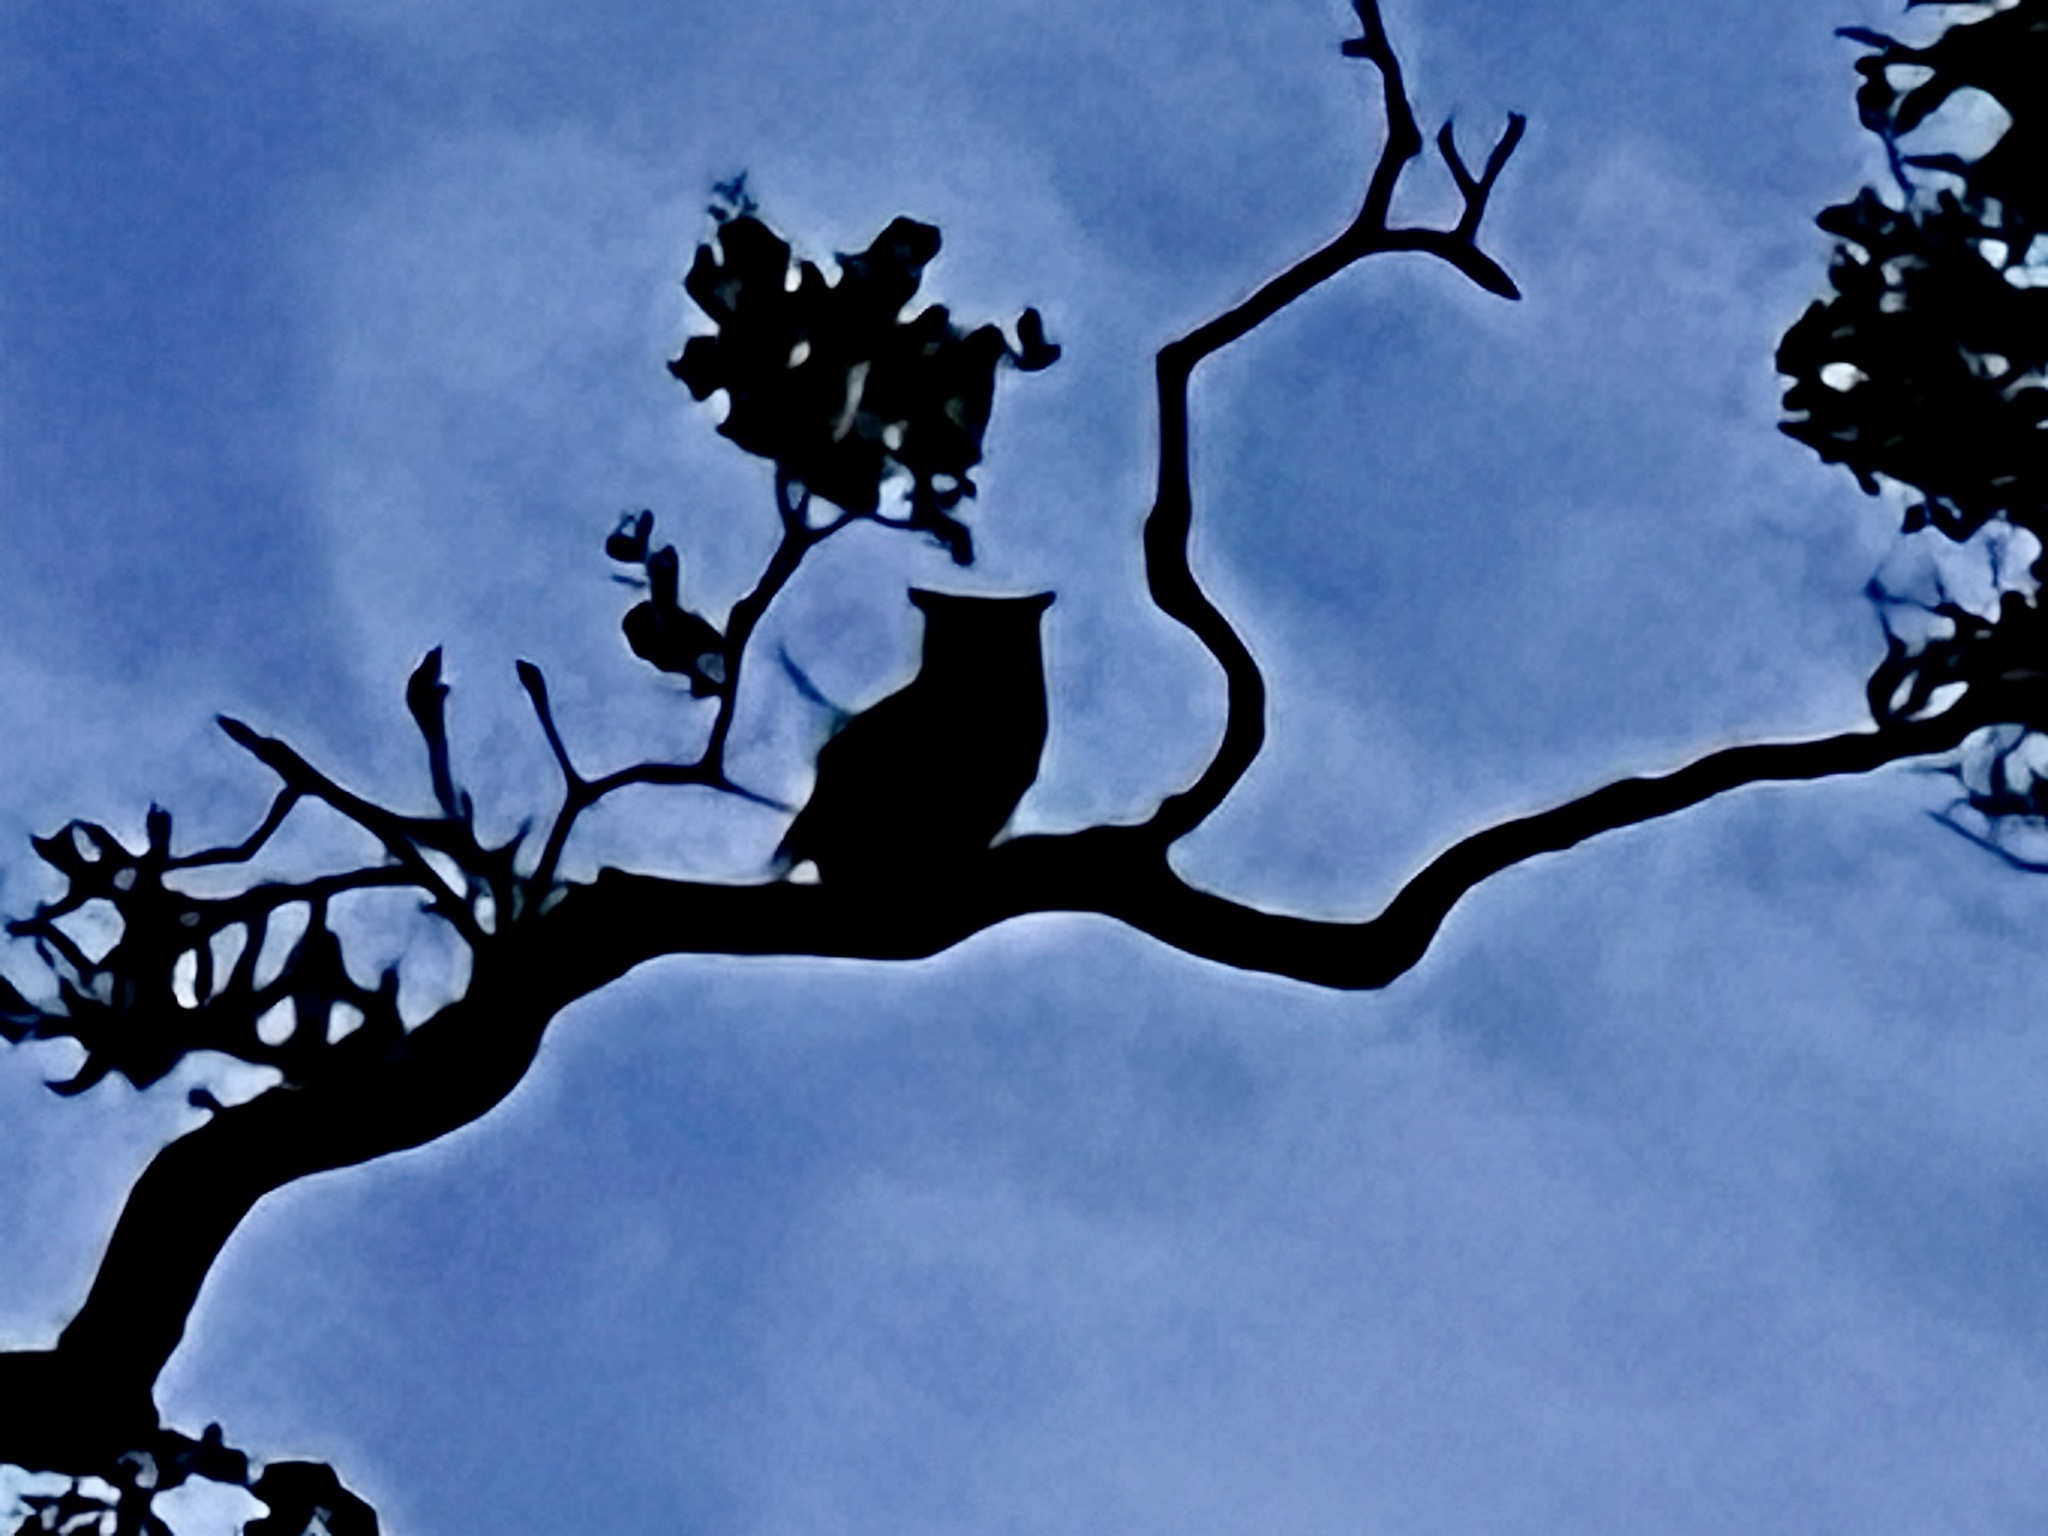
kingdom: Animalia
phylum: Chordata
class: Aves
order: Strigiformes
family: Strigidae
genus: Bubo
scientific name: Bubo virginianus
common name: Great horned owl
